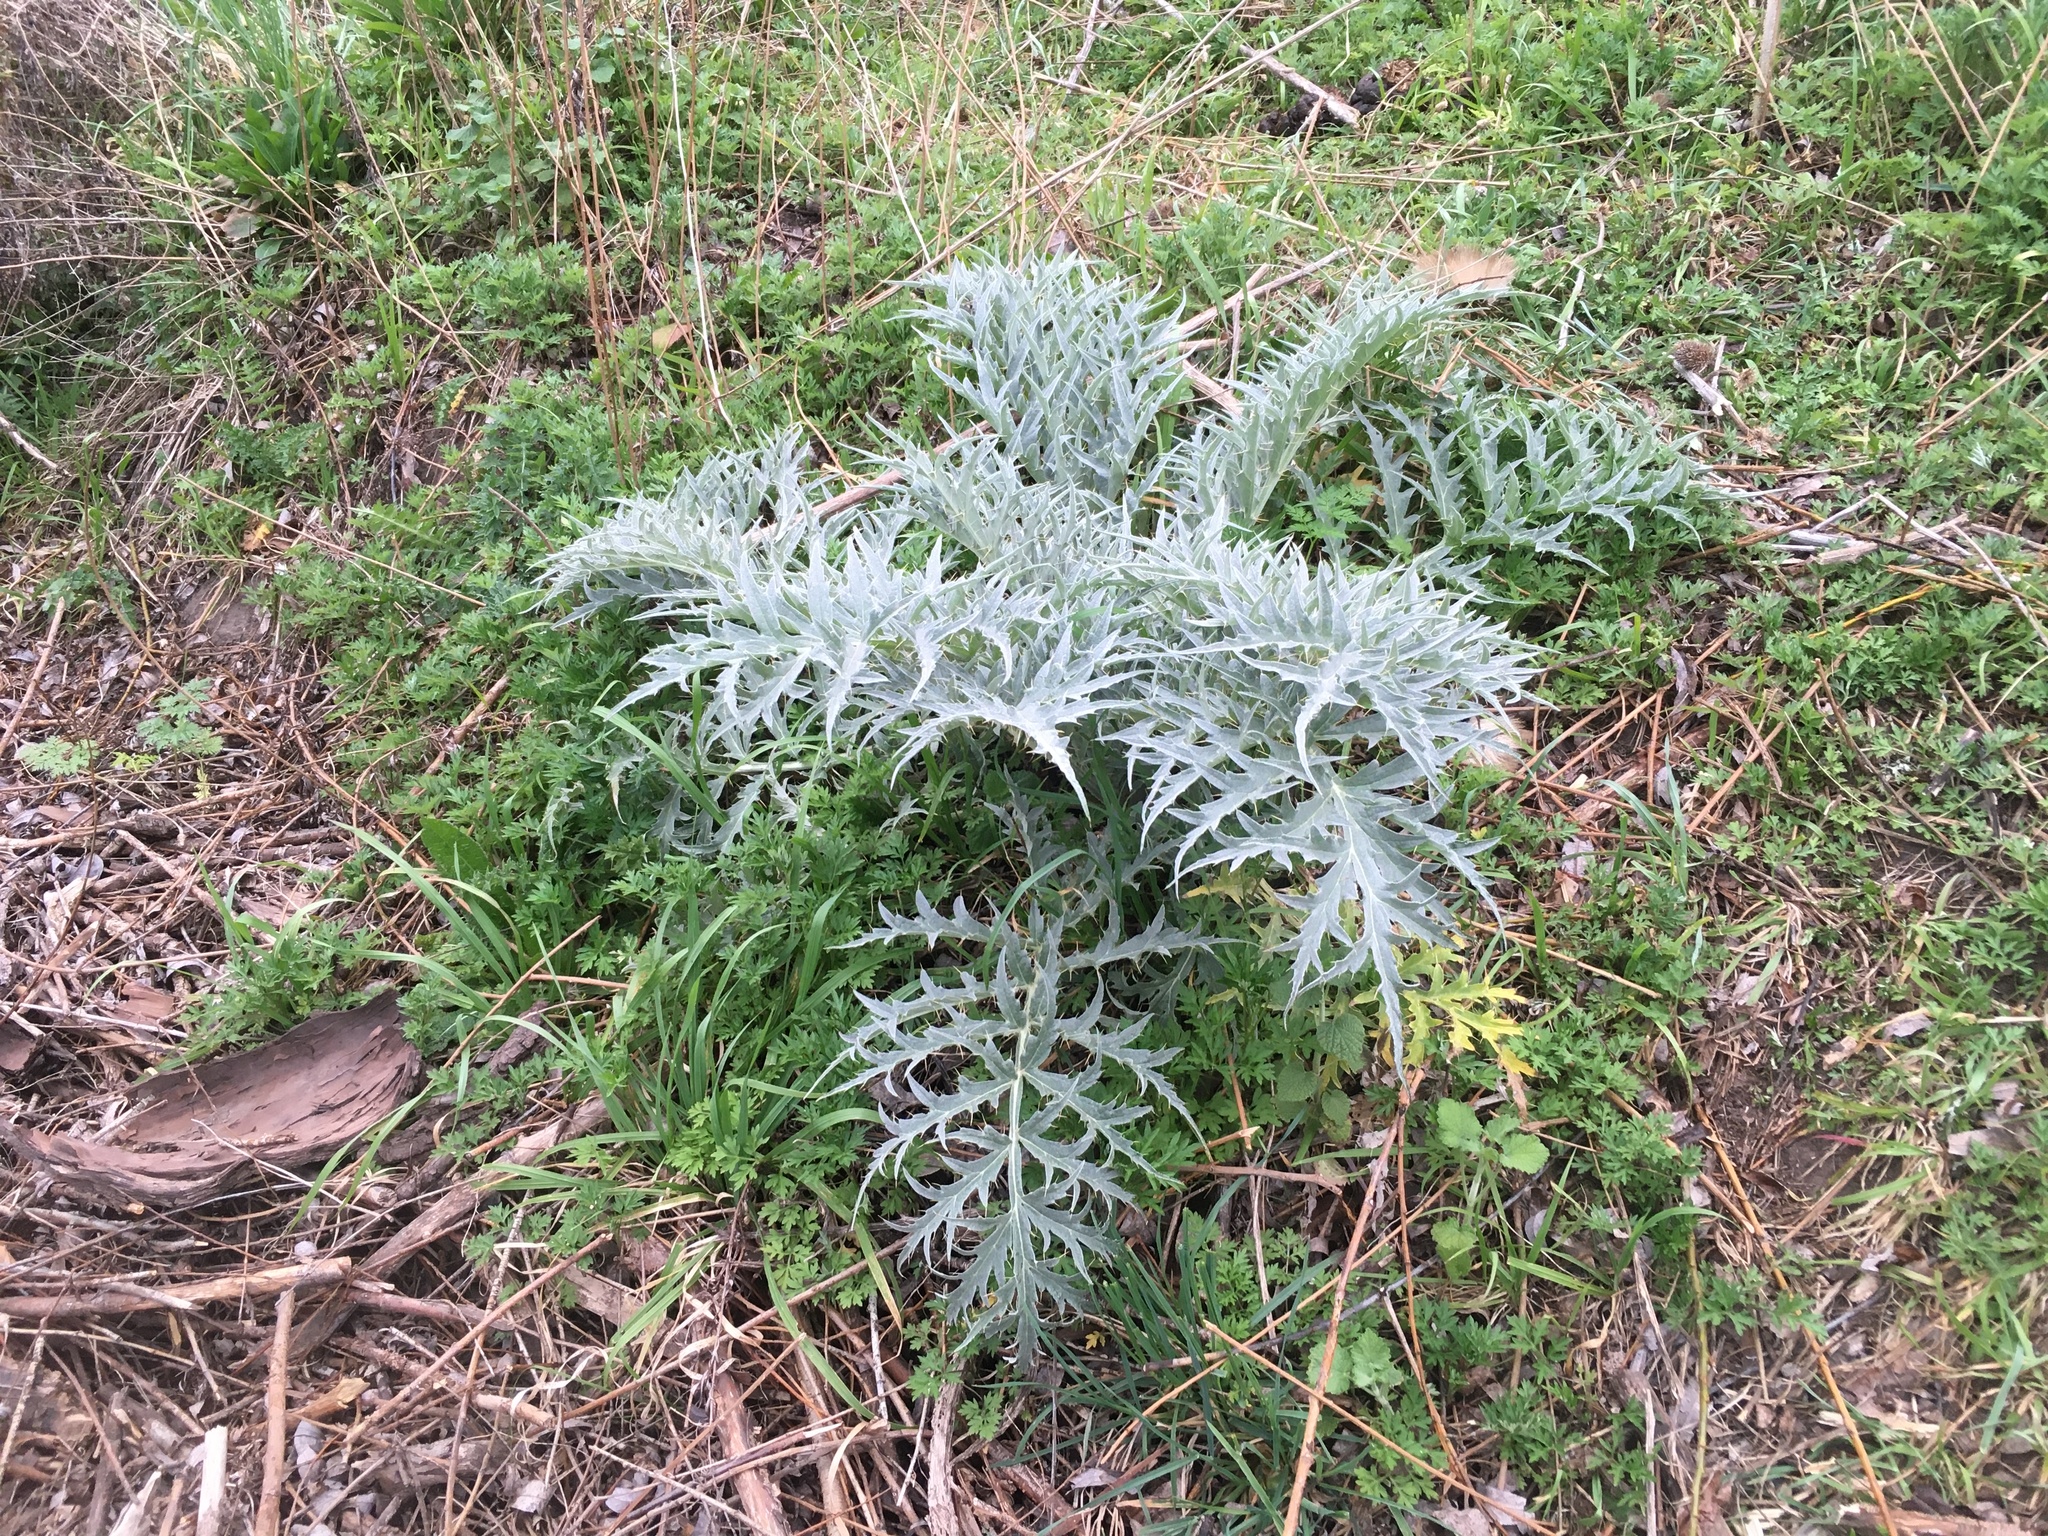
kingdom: Plantae
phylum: Tracheophyta
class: Magnoliopsida
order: Asterales
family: Asteraceae
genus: Cynara
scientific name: Cynara cardunculus
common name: Globe artichoke
